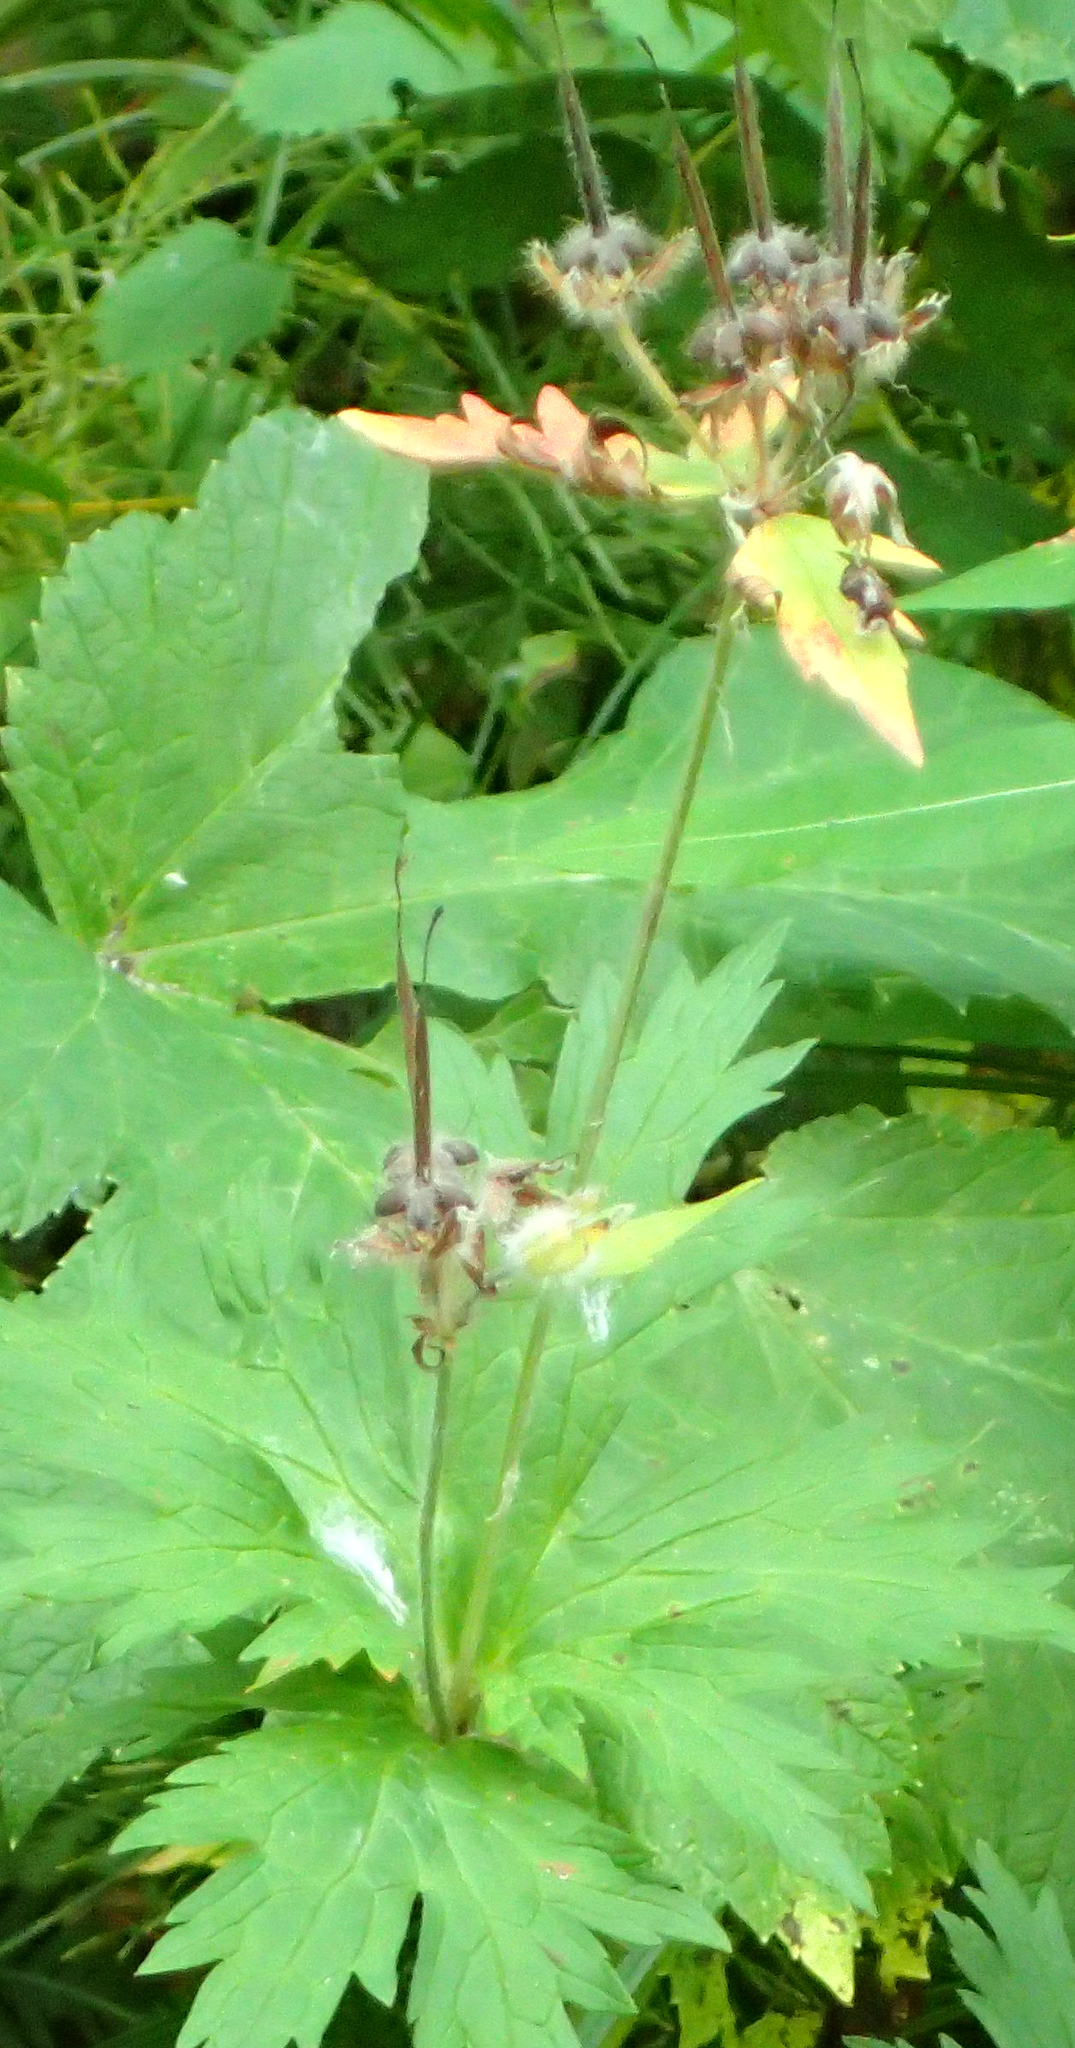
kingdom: Plantae
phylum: Tracheophyta
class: Magnoliopsida
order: Geraniales
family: Geraniaceae
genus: Geranium
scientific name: Geranium erianthum
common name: Northern crane's-bill
